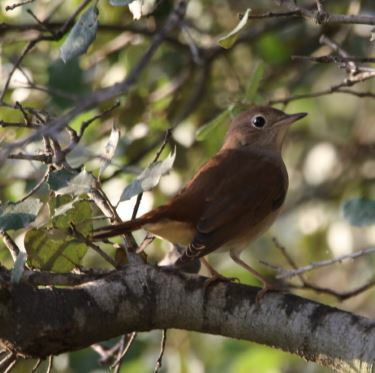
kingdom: Animalia
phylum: Chordata
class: Aves
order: Passeriformes
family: Muscicapidae
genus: Luscinia
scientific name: Luscinia megarhynchos
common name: Common nightingale
